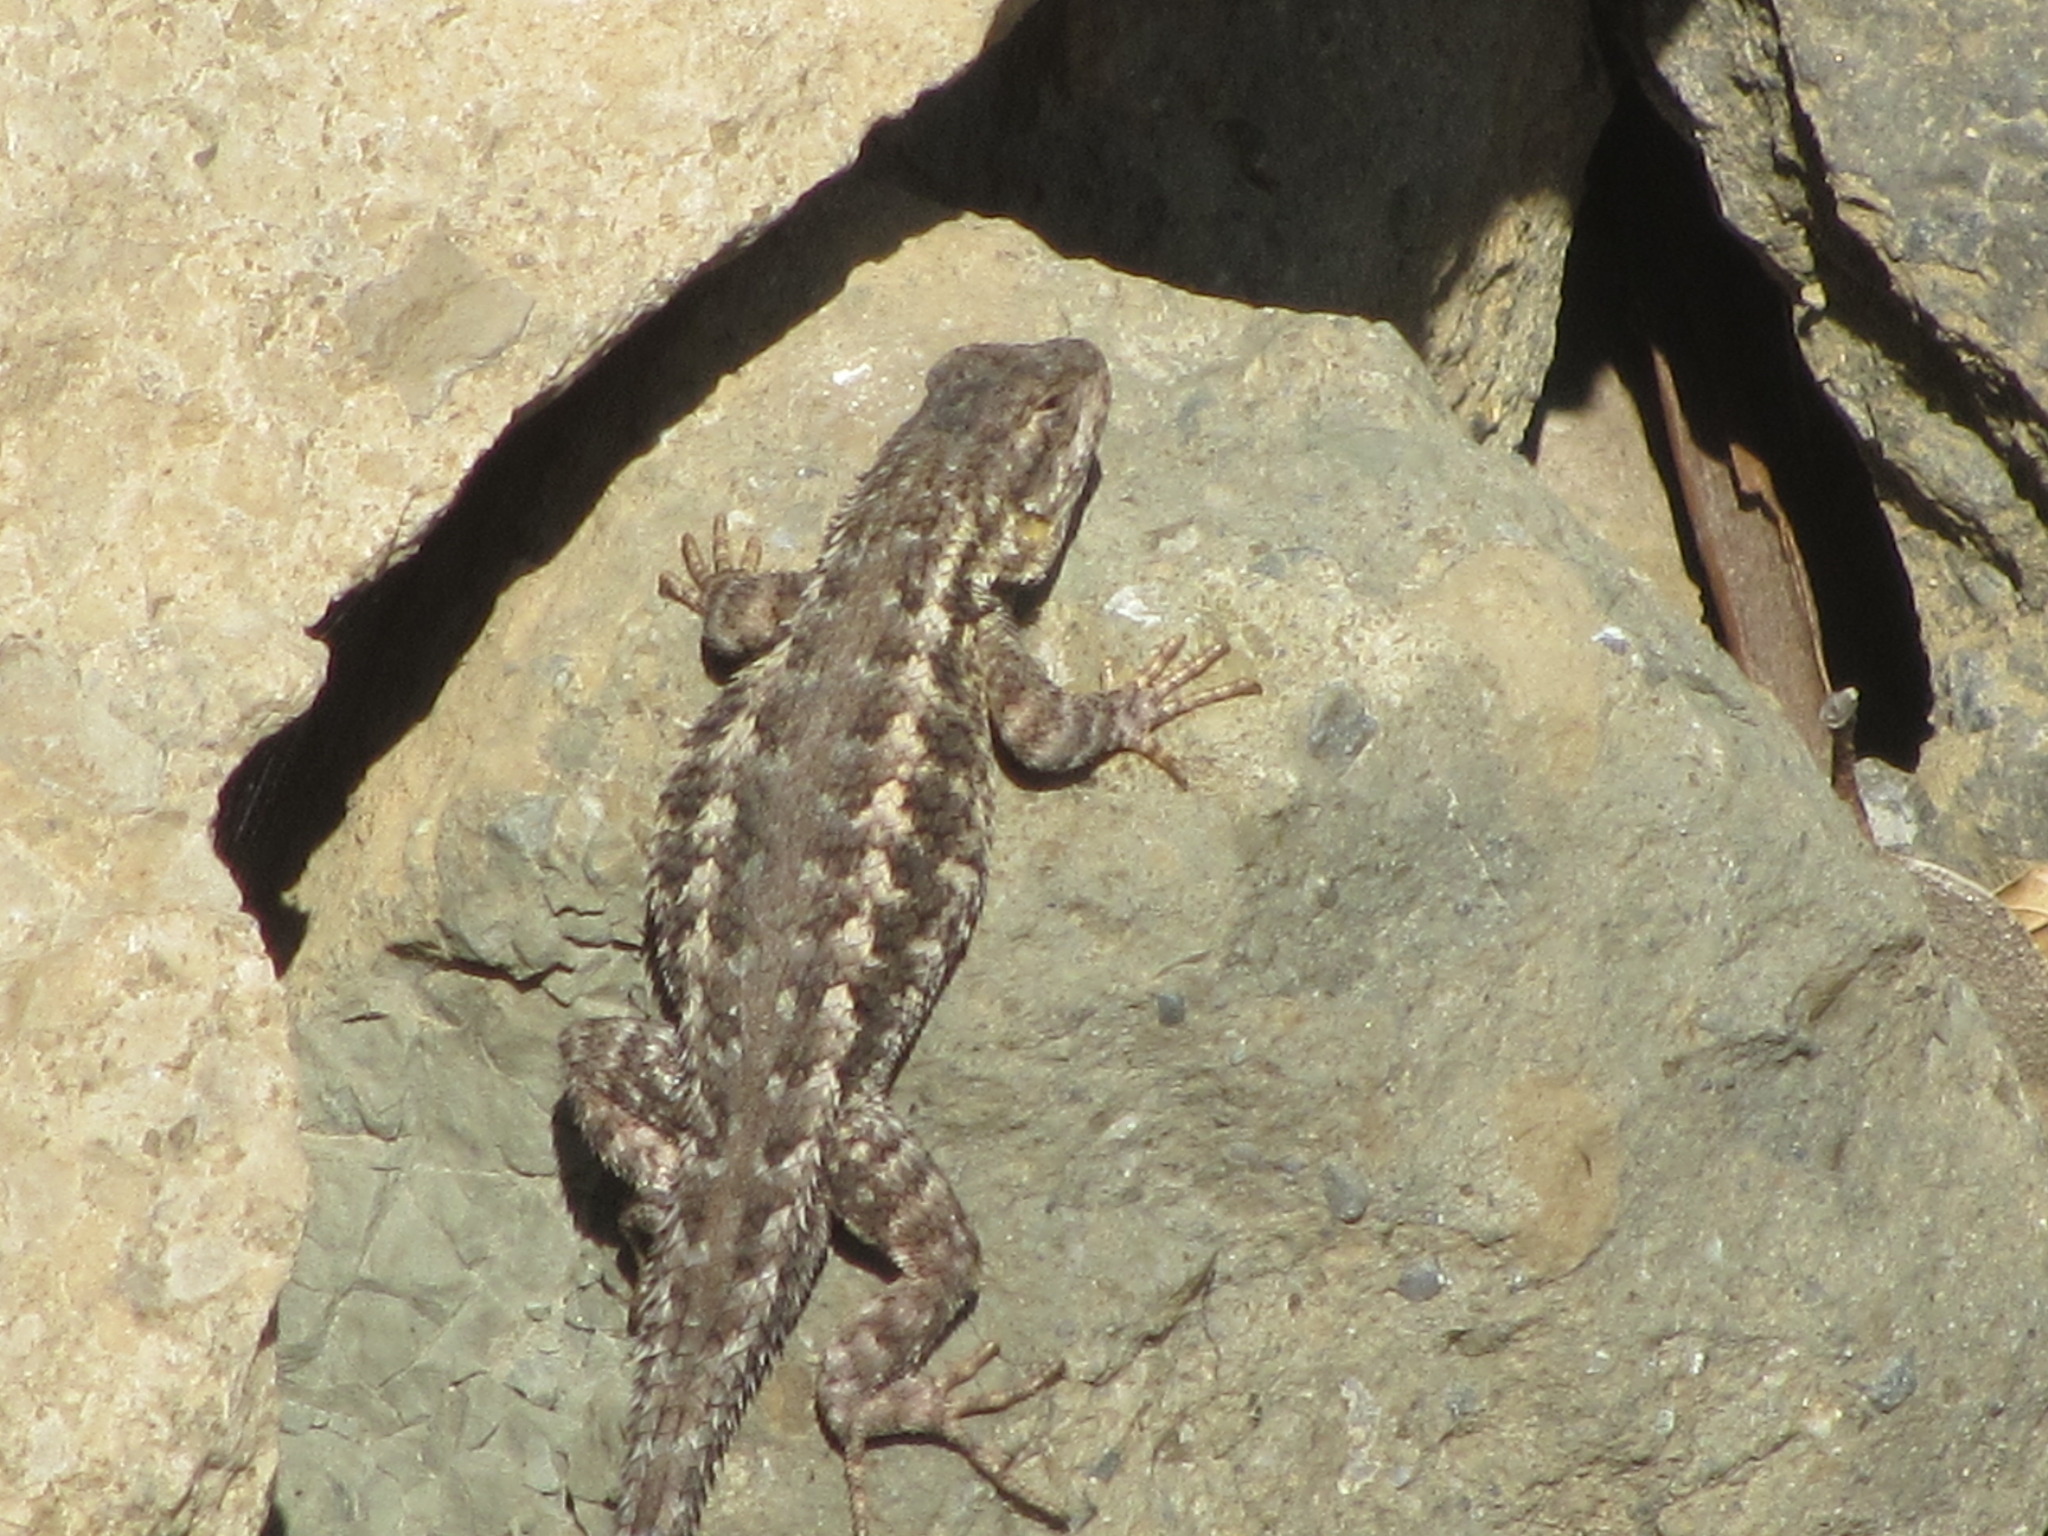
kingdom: Animalia
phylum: Chordata
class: Squamata
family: Phrynosomatidae
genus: Sceloporus
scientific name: Sceloporus occidentalis
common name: Western fence lizard
